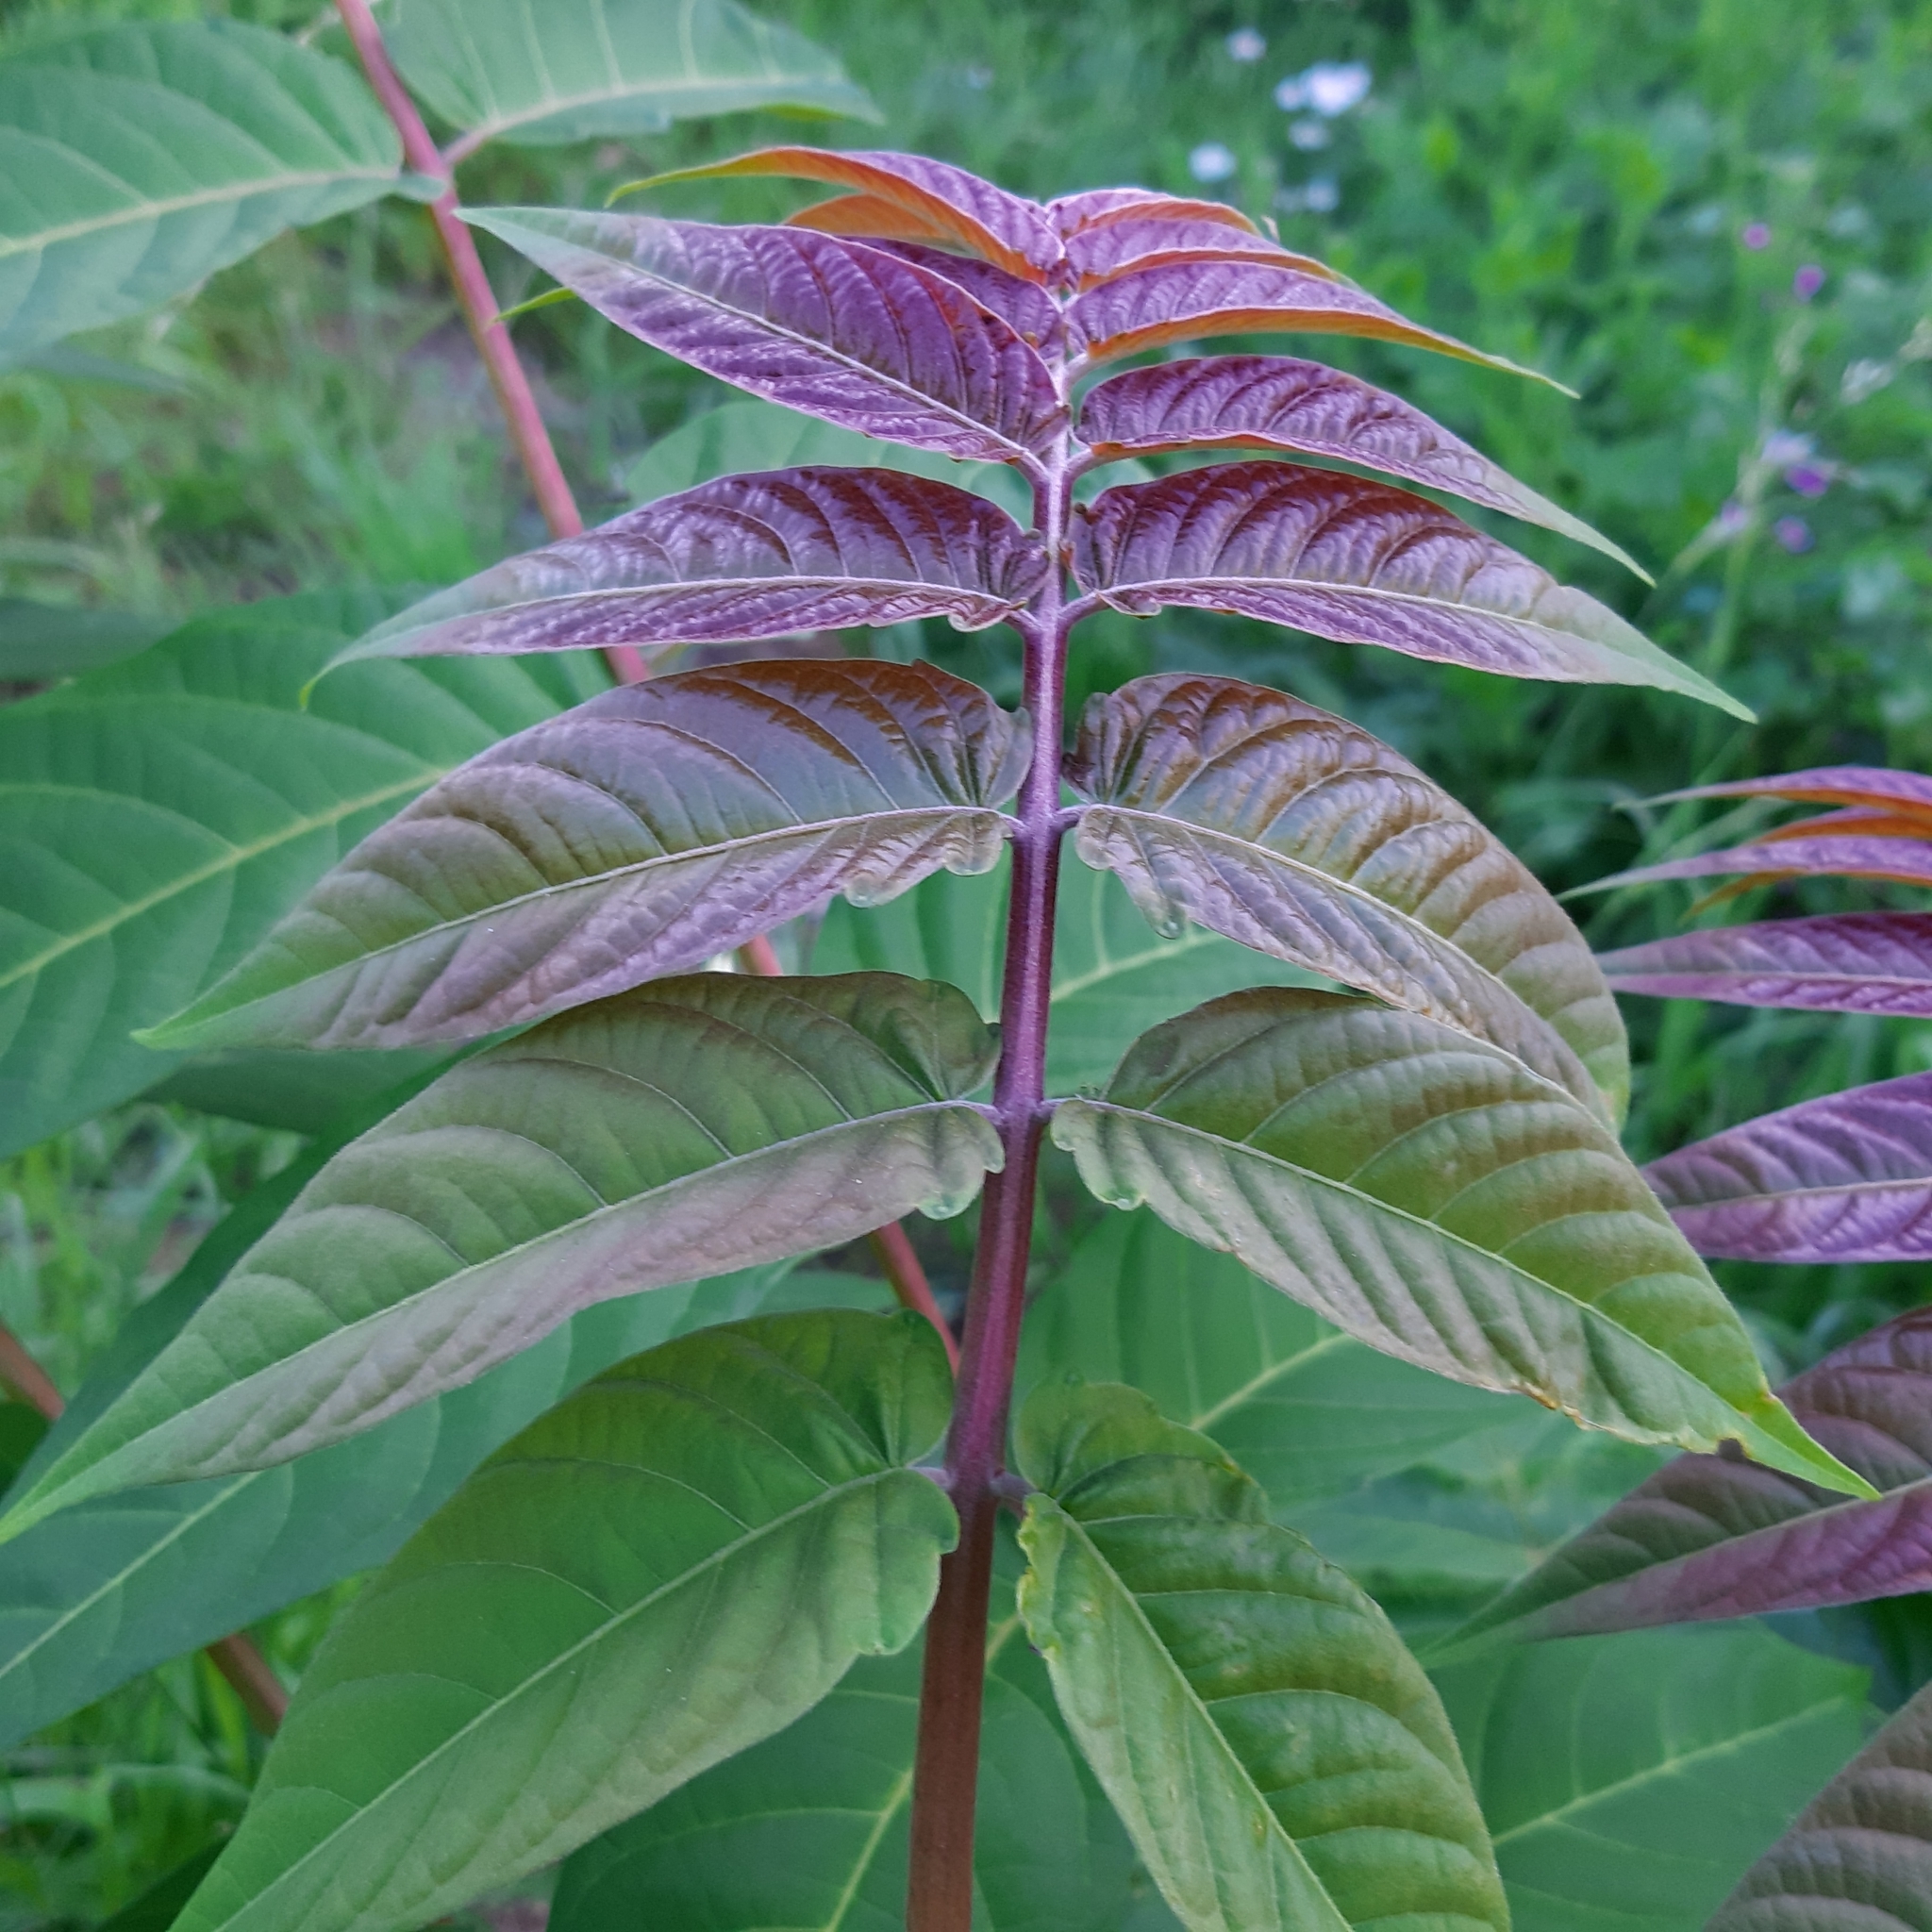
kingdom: Plantae
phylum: Tracheophyta
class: Magnoliopsida
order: Sapindales
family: Simaroubaceae
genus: Ailanthus
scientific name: Ailanthus altissima
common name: Tree-of-heaven
